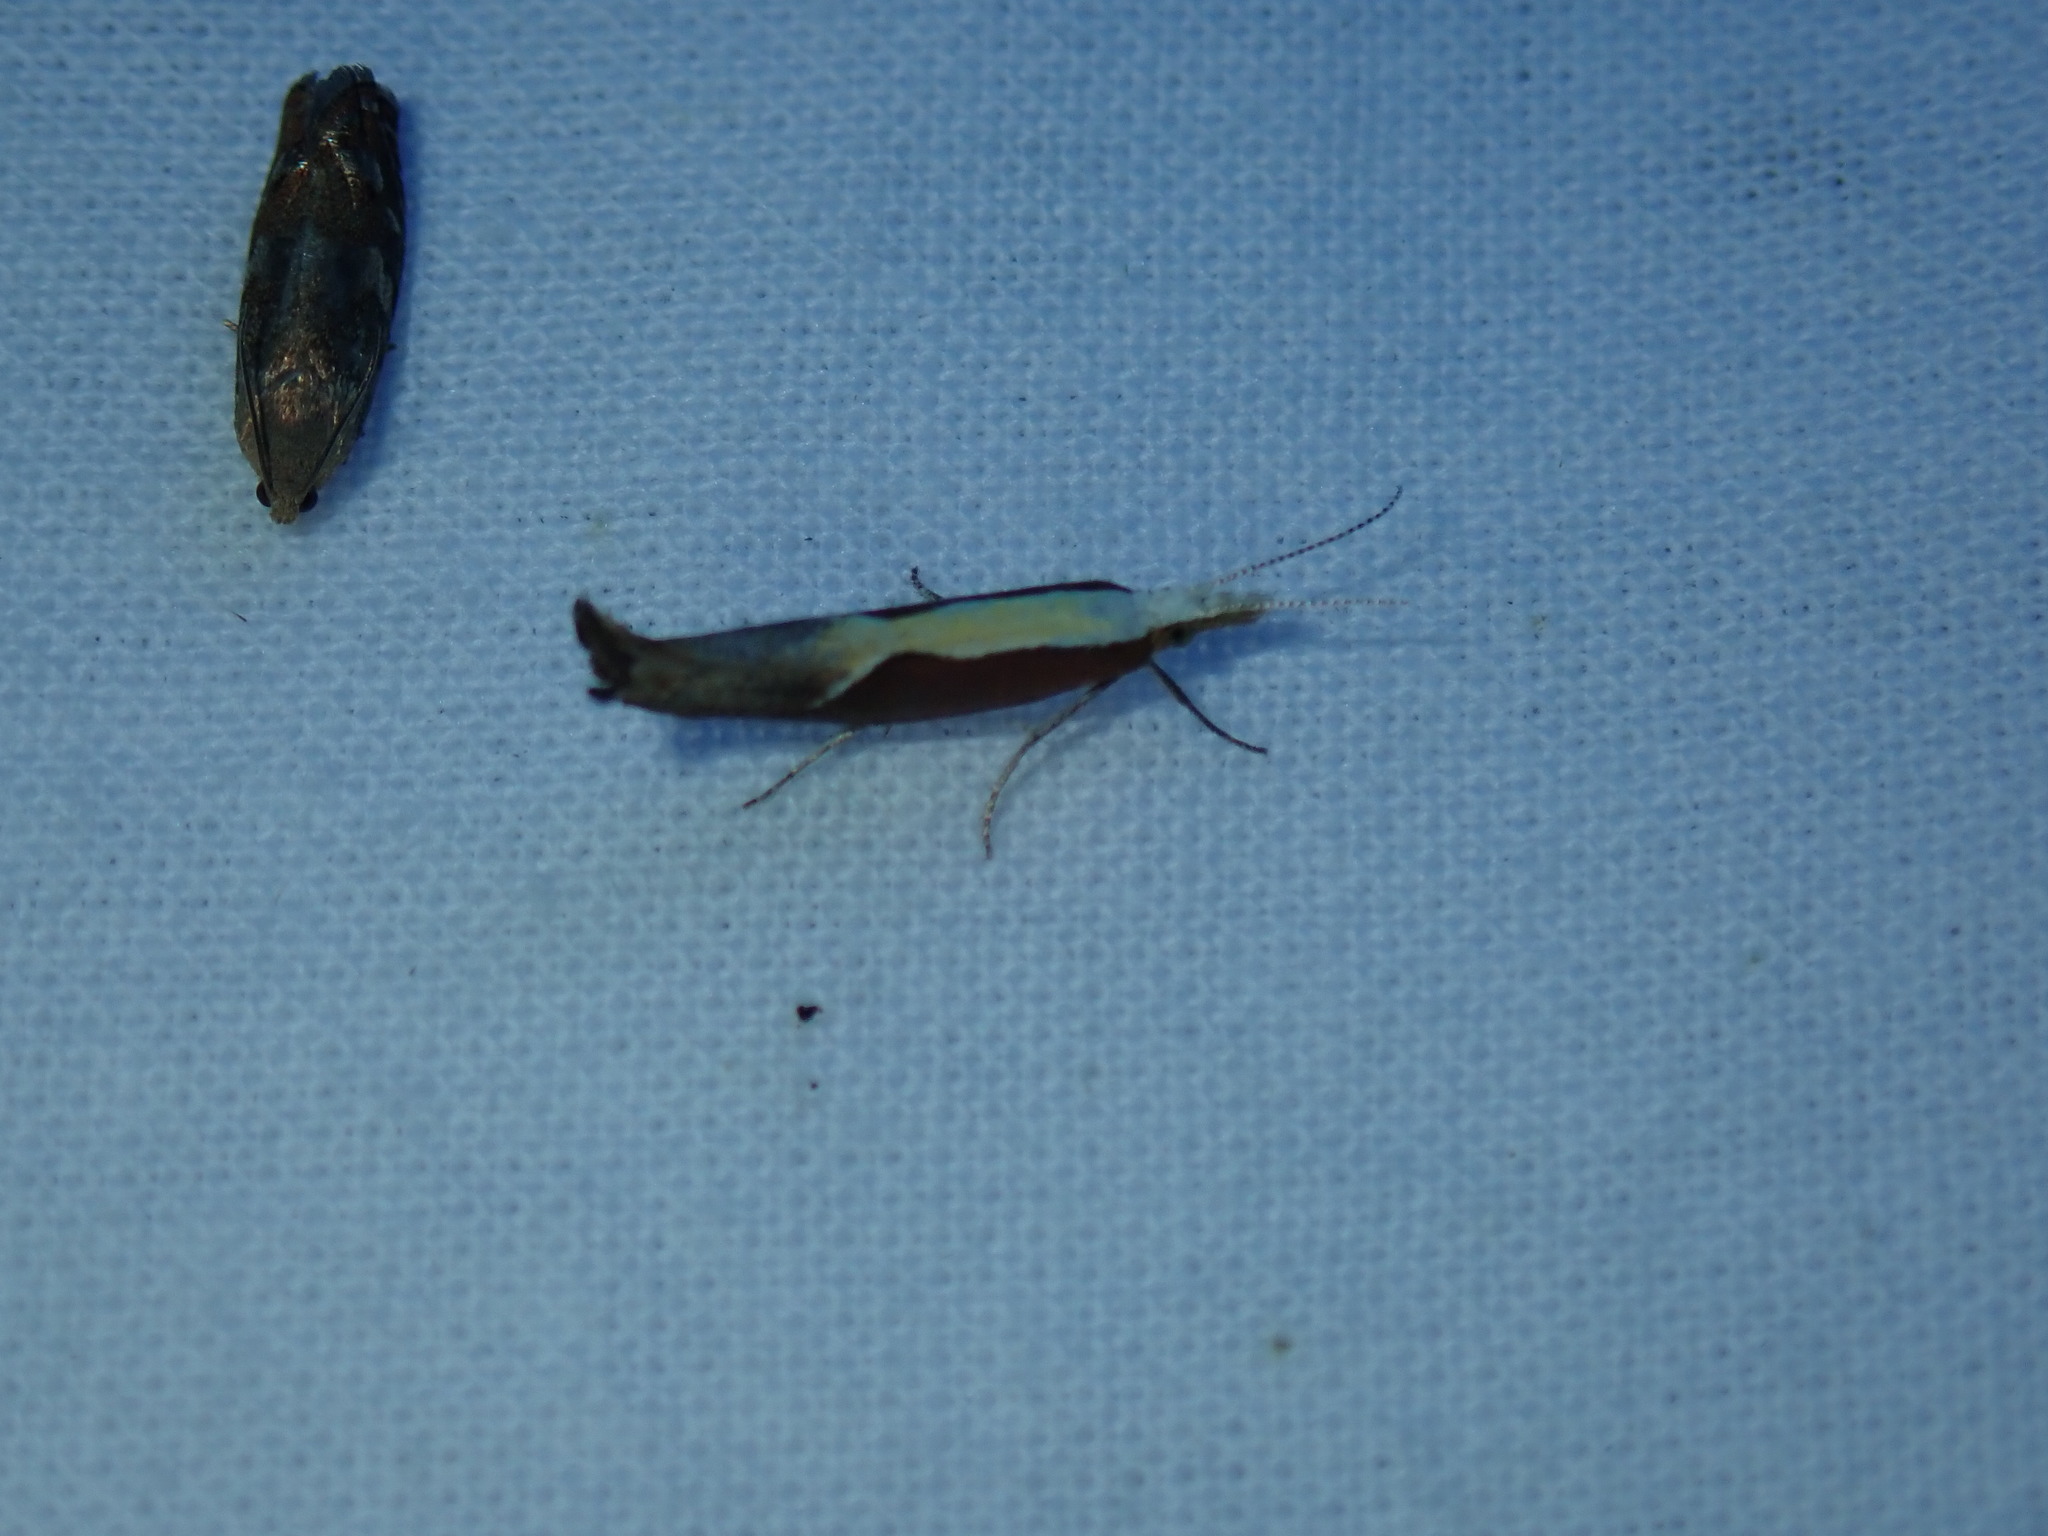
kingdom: Animalia
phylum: Arthropoda
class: Insecta
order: Lepidoptera
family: Ypsolophidae
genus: Ypsolopha
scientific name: Ypsolopha dentella
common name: Honeysuckle moth
